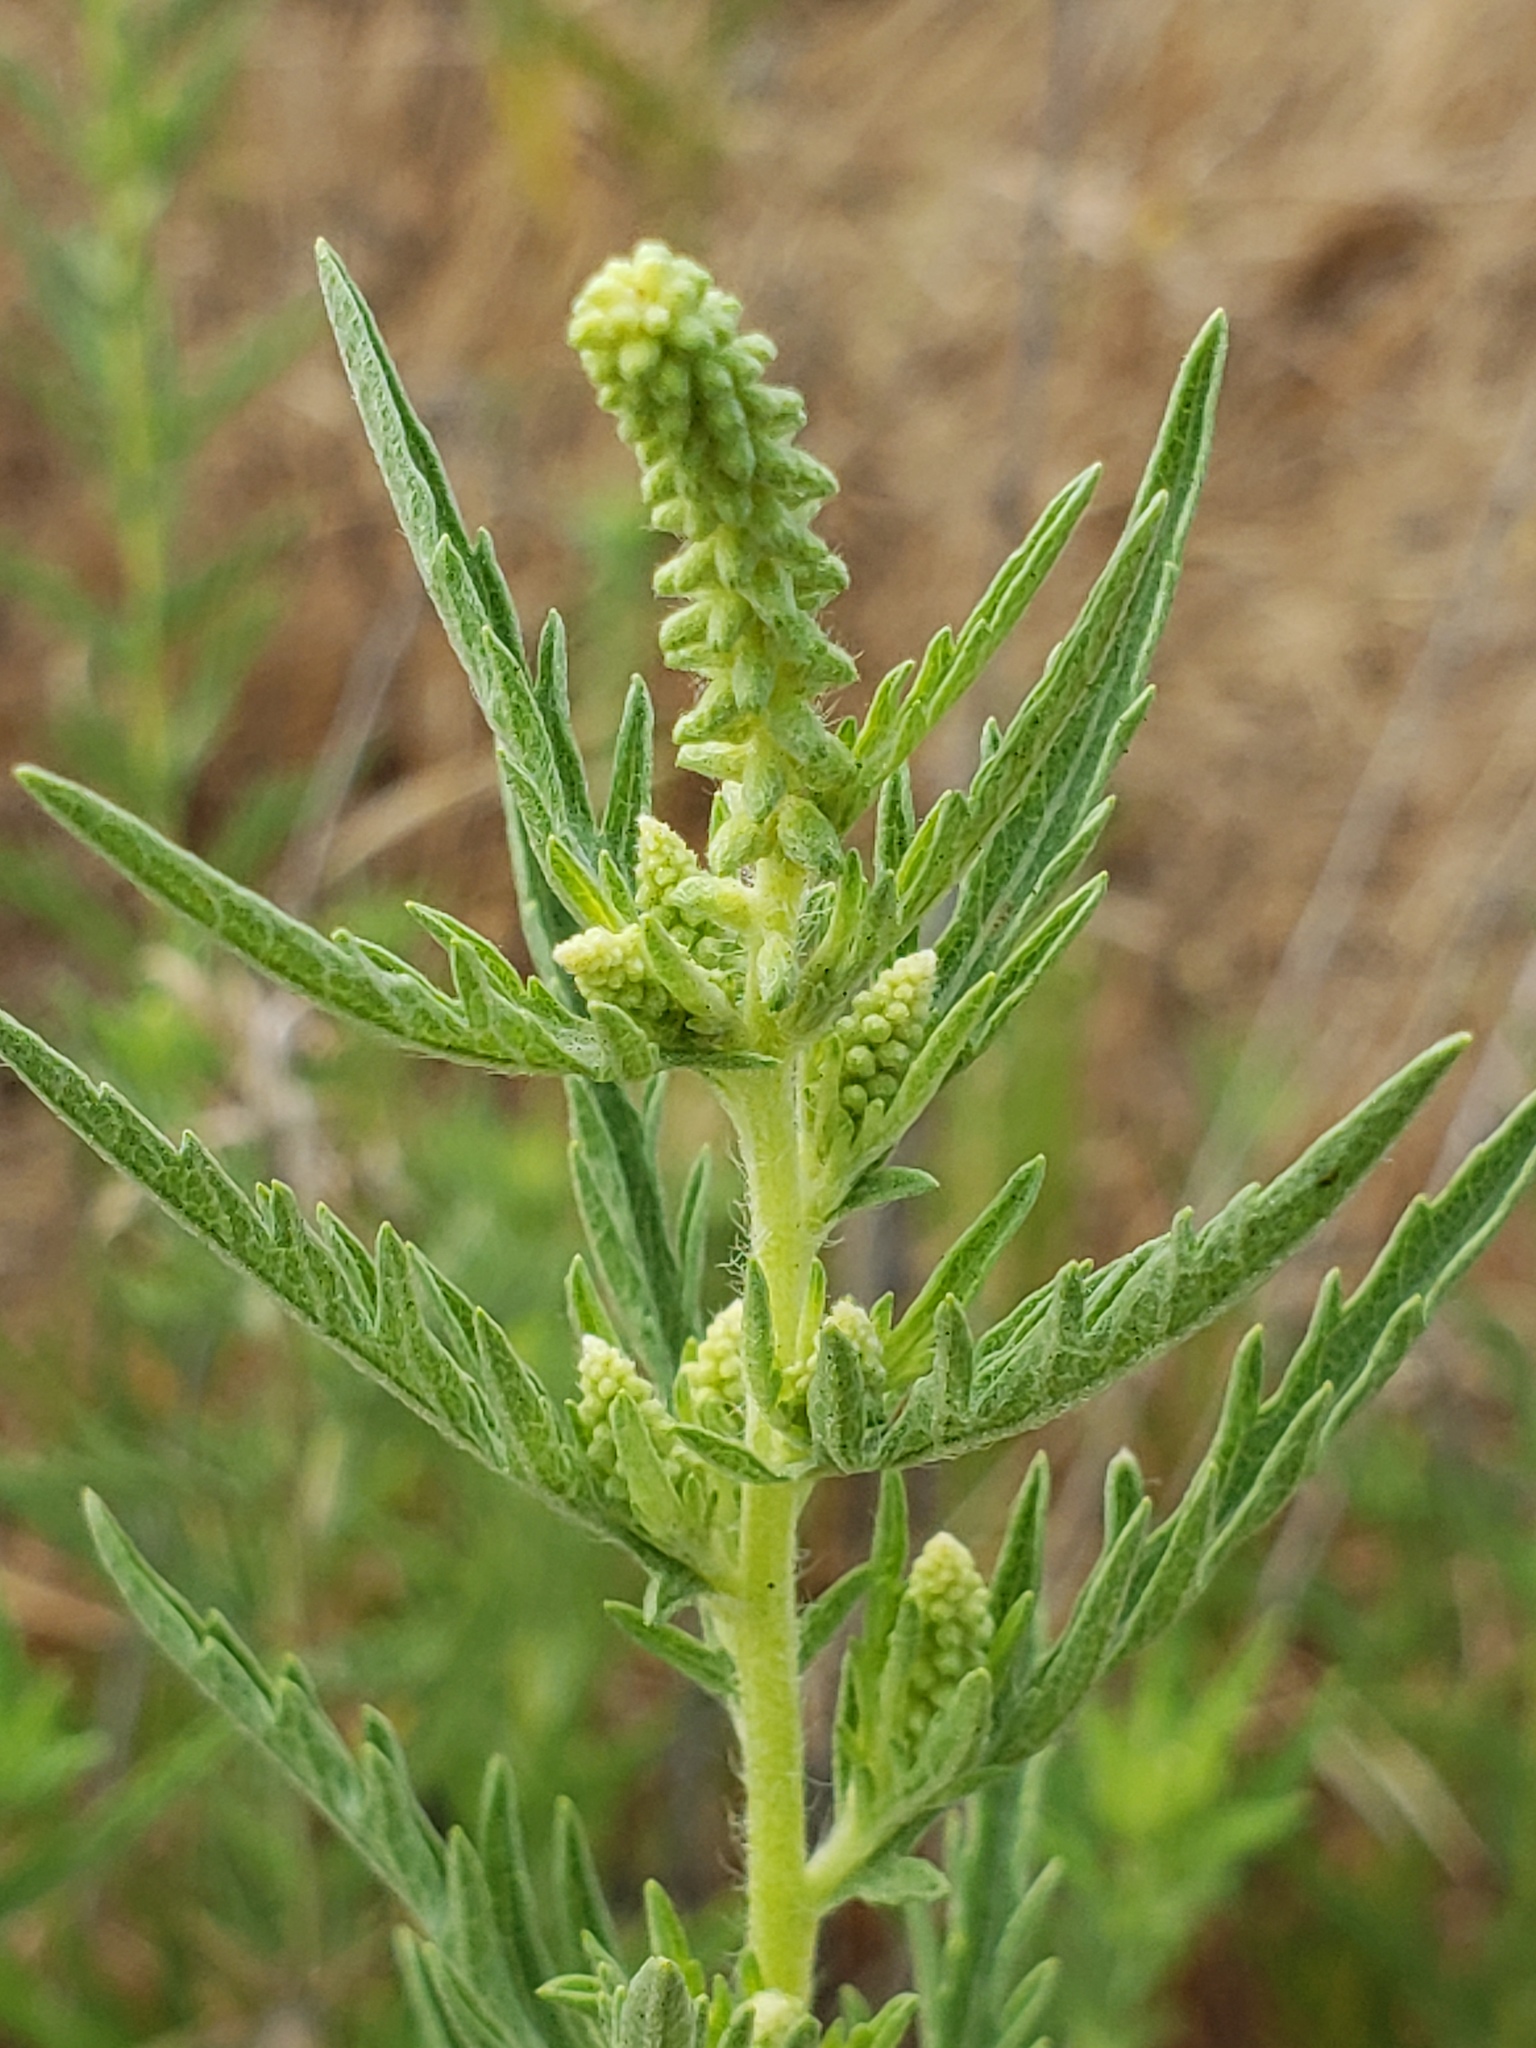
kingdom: Plantae
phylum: Tracheophyta
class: Magnoliopsida
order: Asterales
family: Asteraceae
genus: Ambrosia
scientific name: Ambrosia psilostachya
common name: Perennial ragweed
